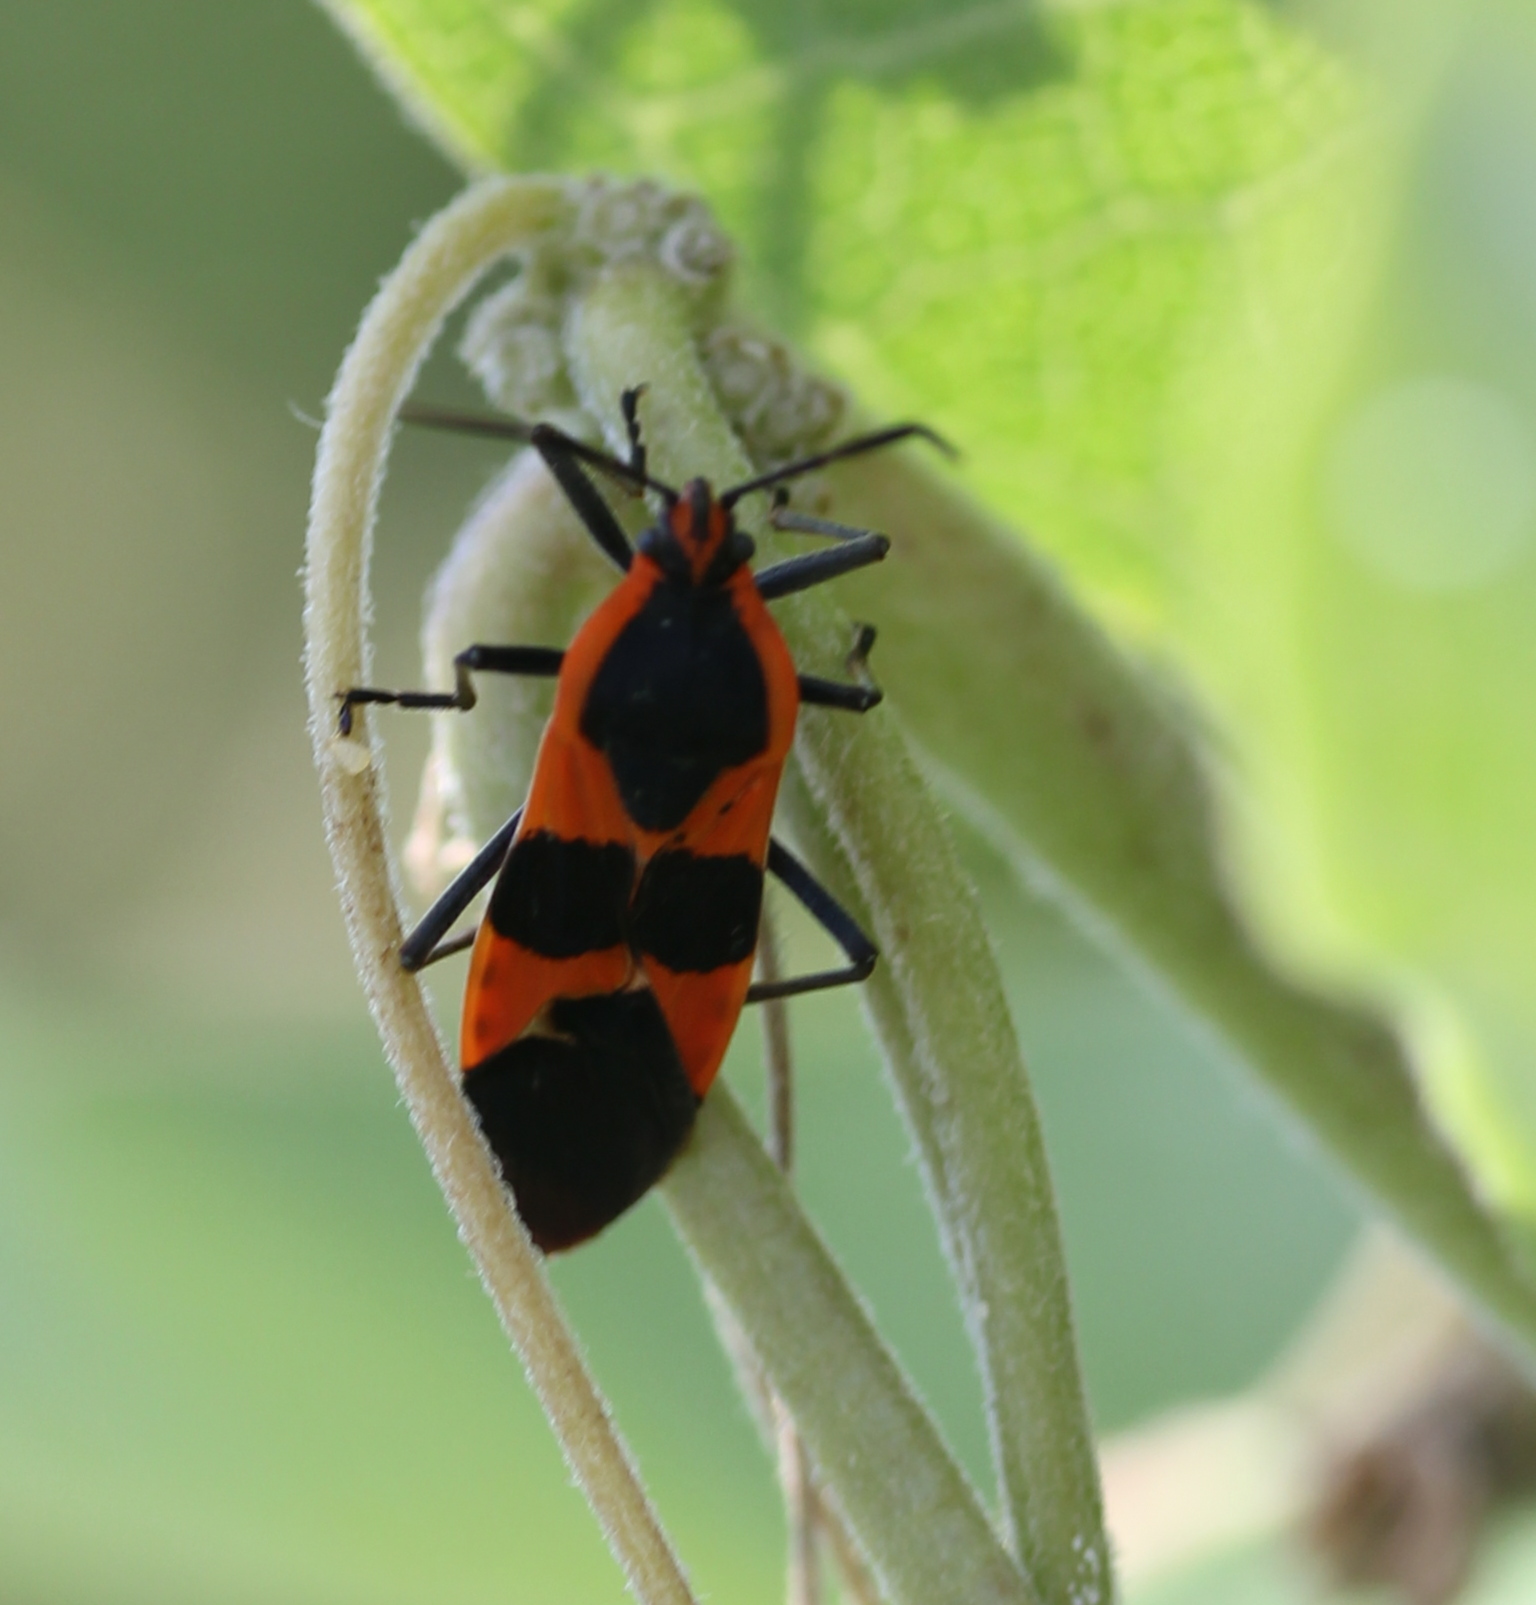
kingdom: Animalia
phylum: Arthropoda
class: Insecta
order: Hemiptera
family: Lygaeidae
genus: Oncopeltus
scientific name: Oncopeltus fasciatus
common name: Large milkweed bug
